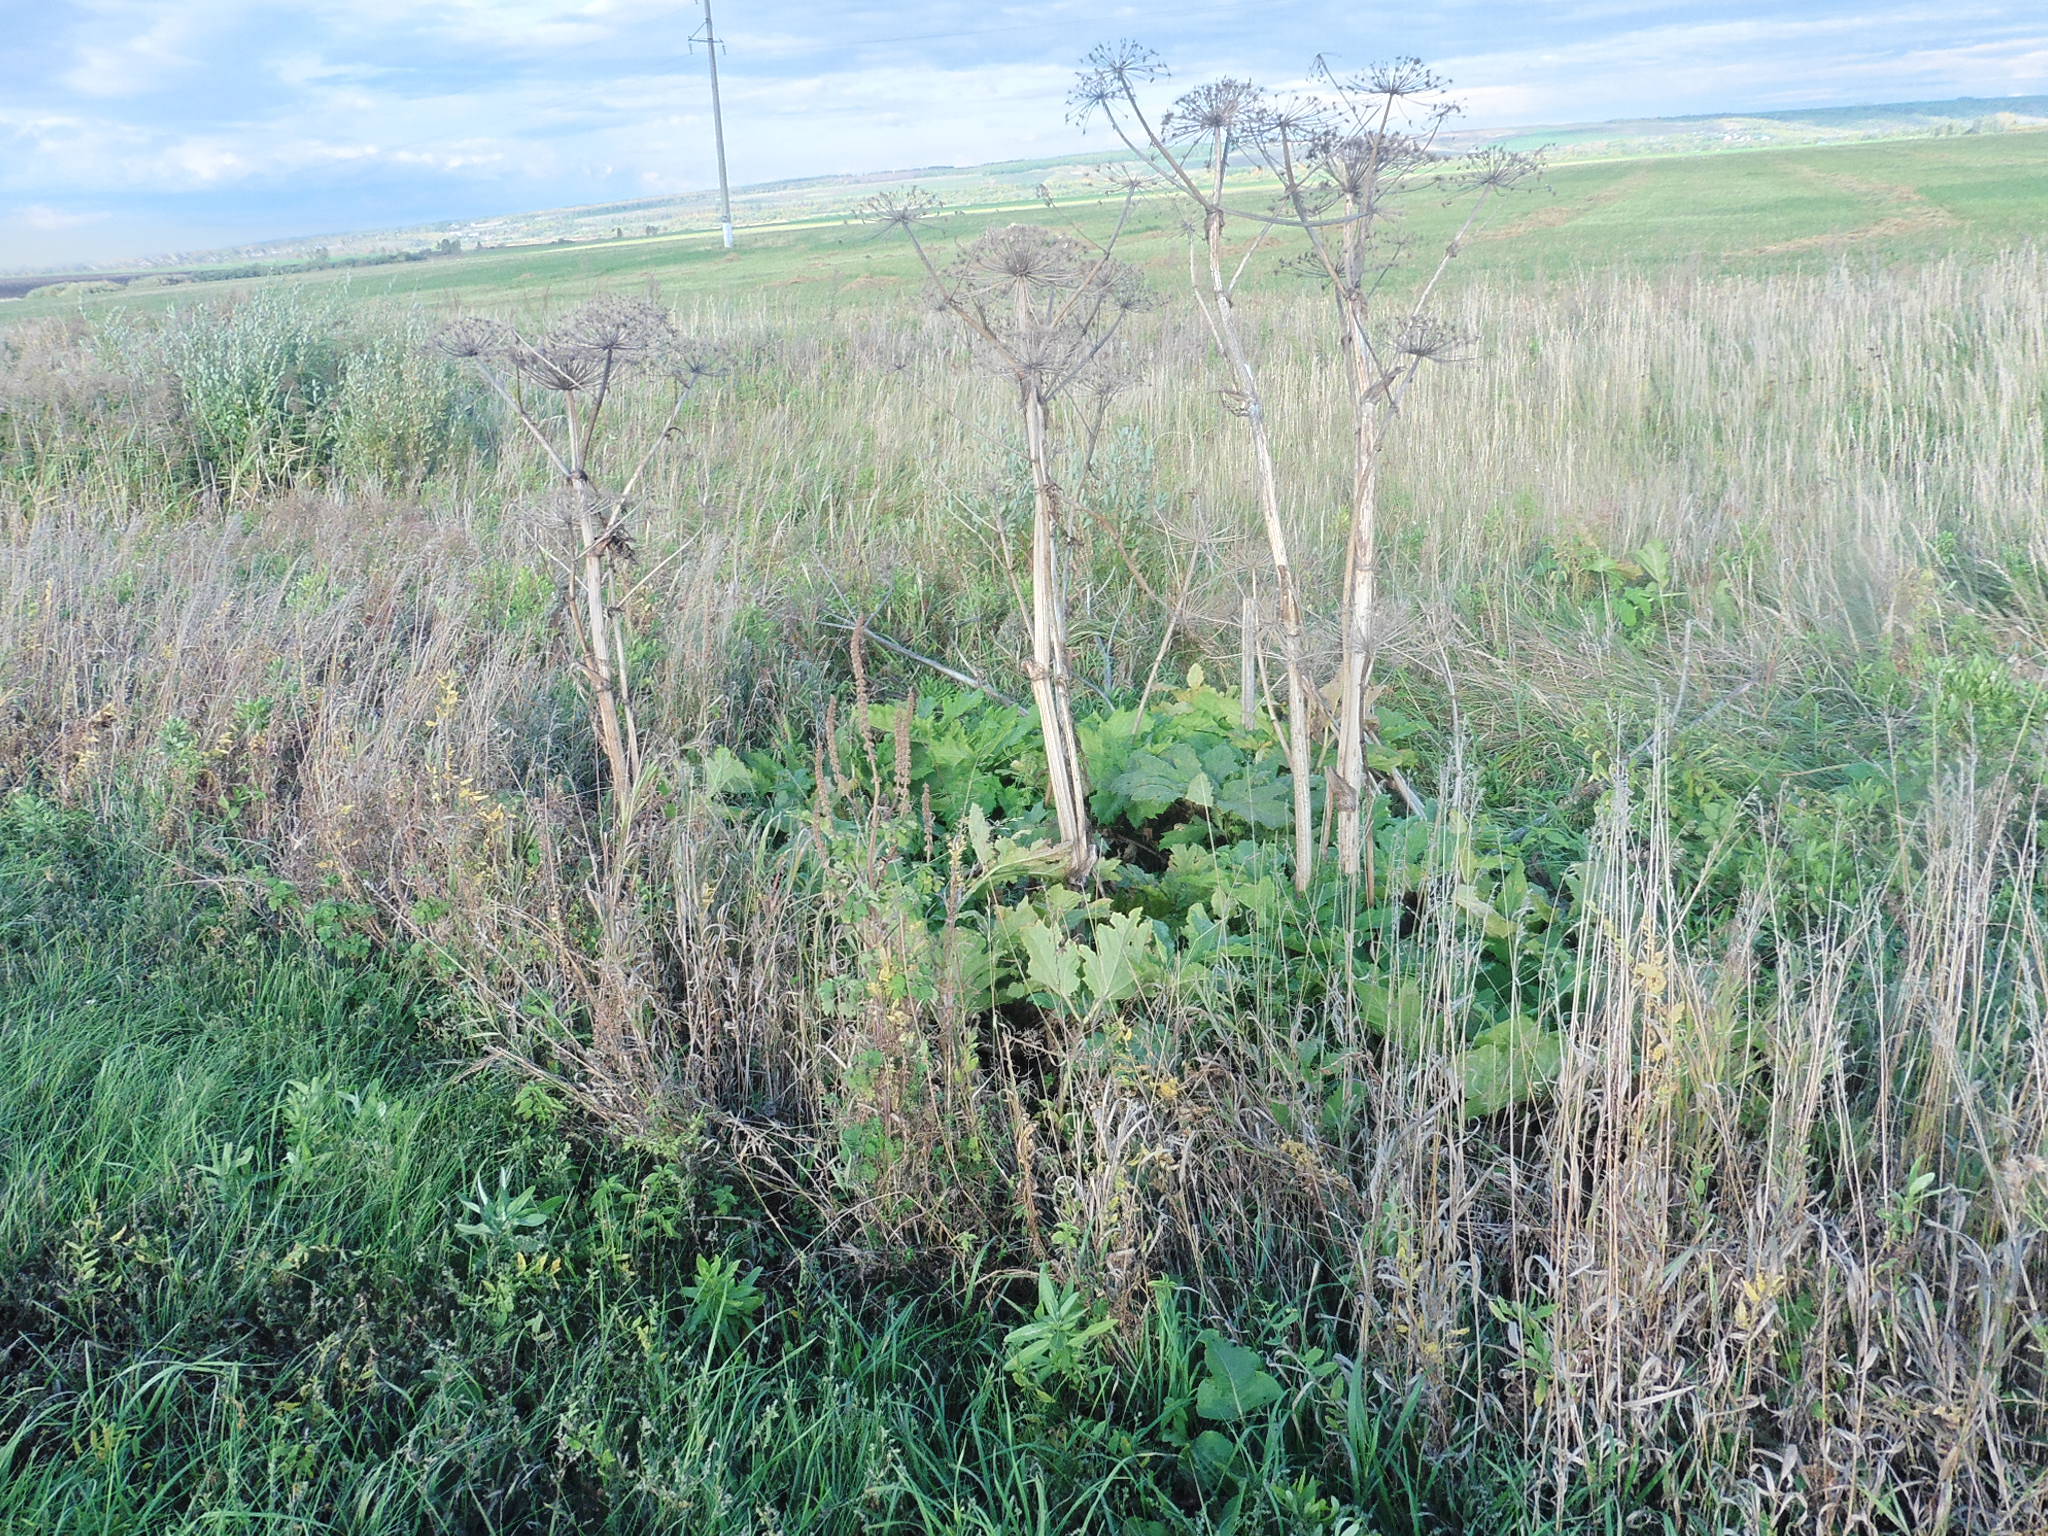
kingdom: Plantae
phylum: Tracheophyta
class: Magnoliopsida
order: Apiales
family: Apiaceae
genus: Heracleum
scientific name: Heracleum sosnowskyi
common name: Sosnowsky's hogweed
